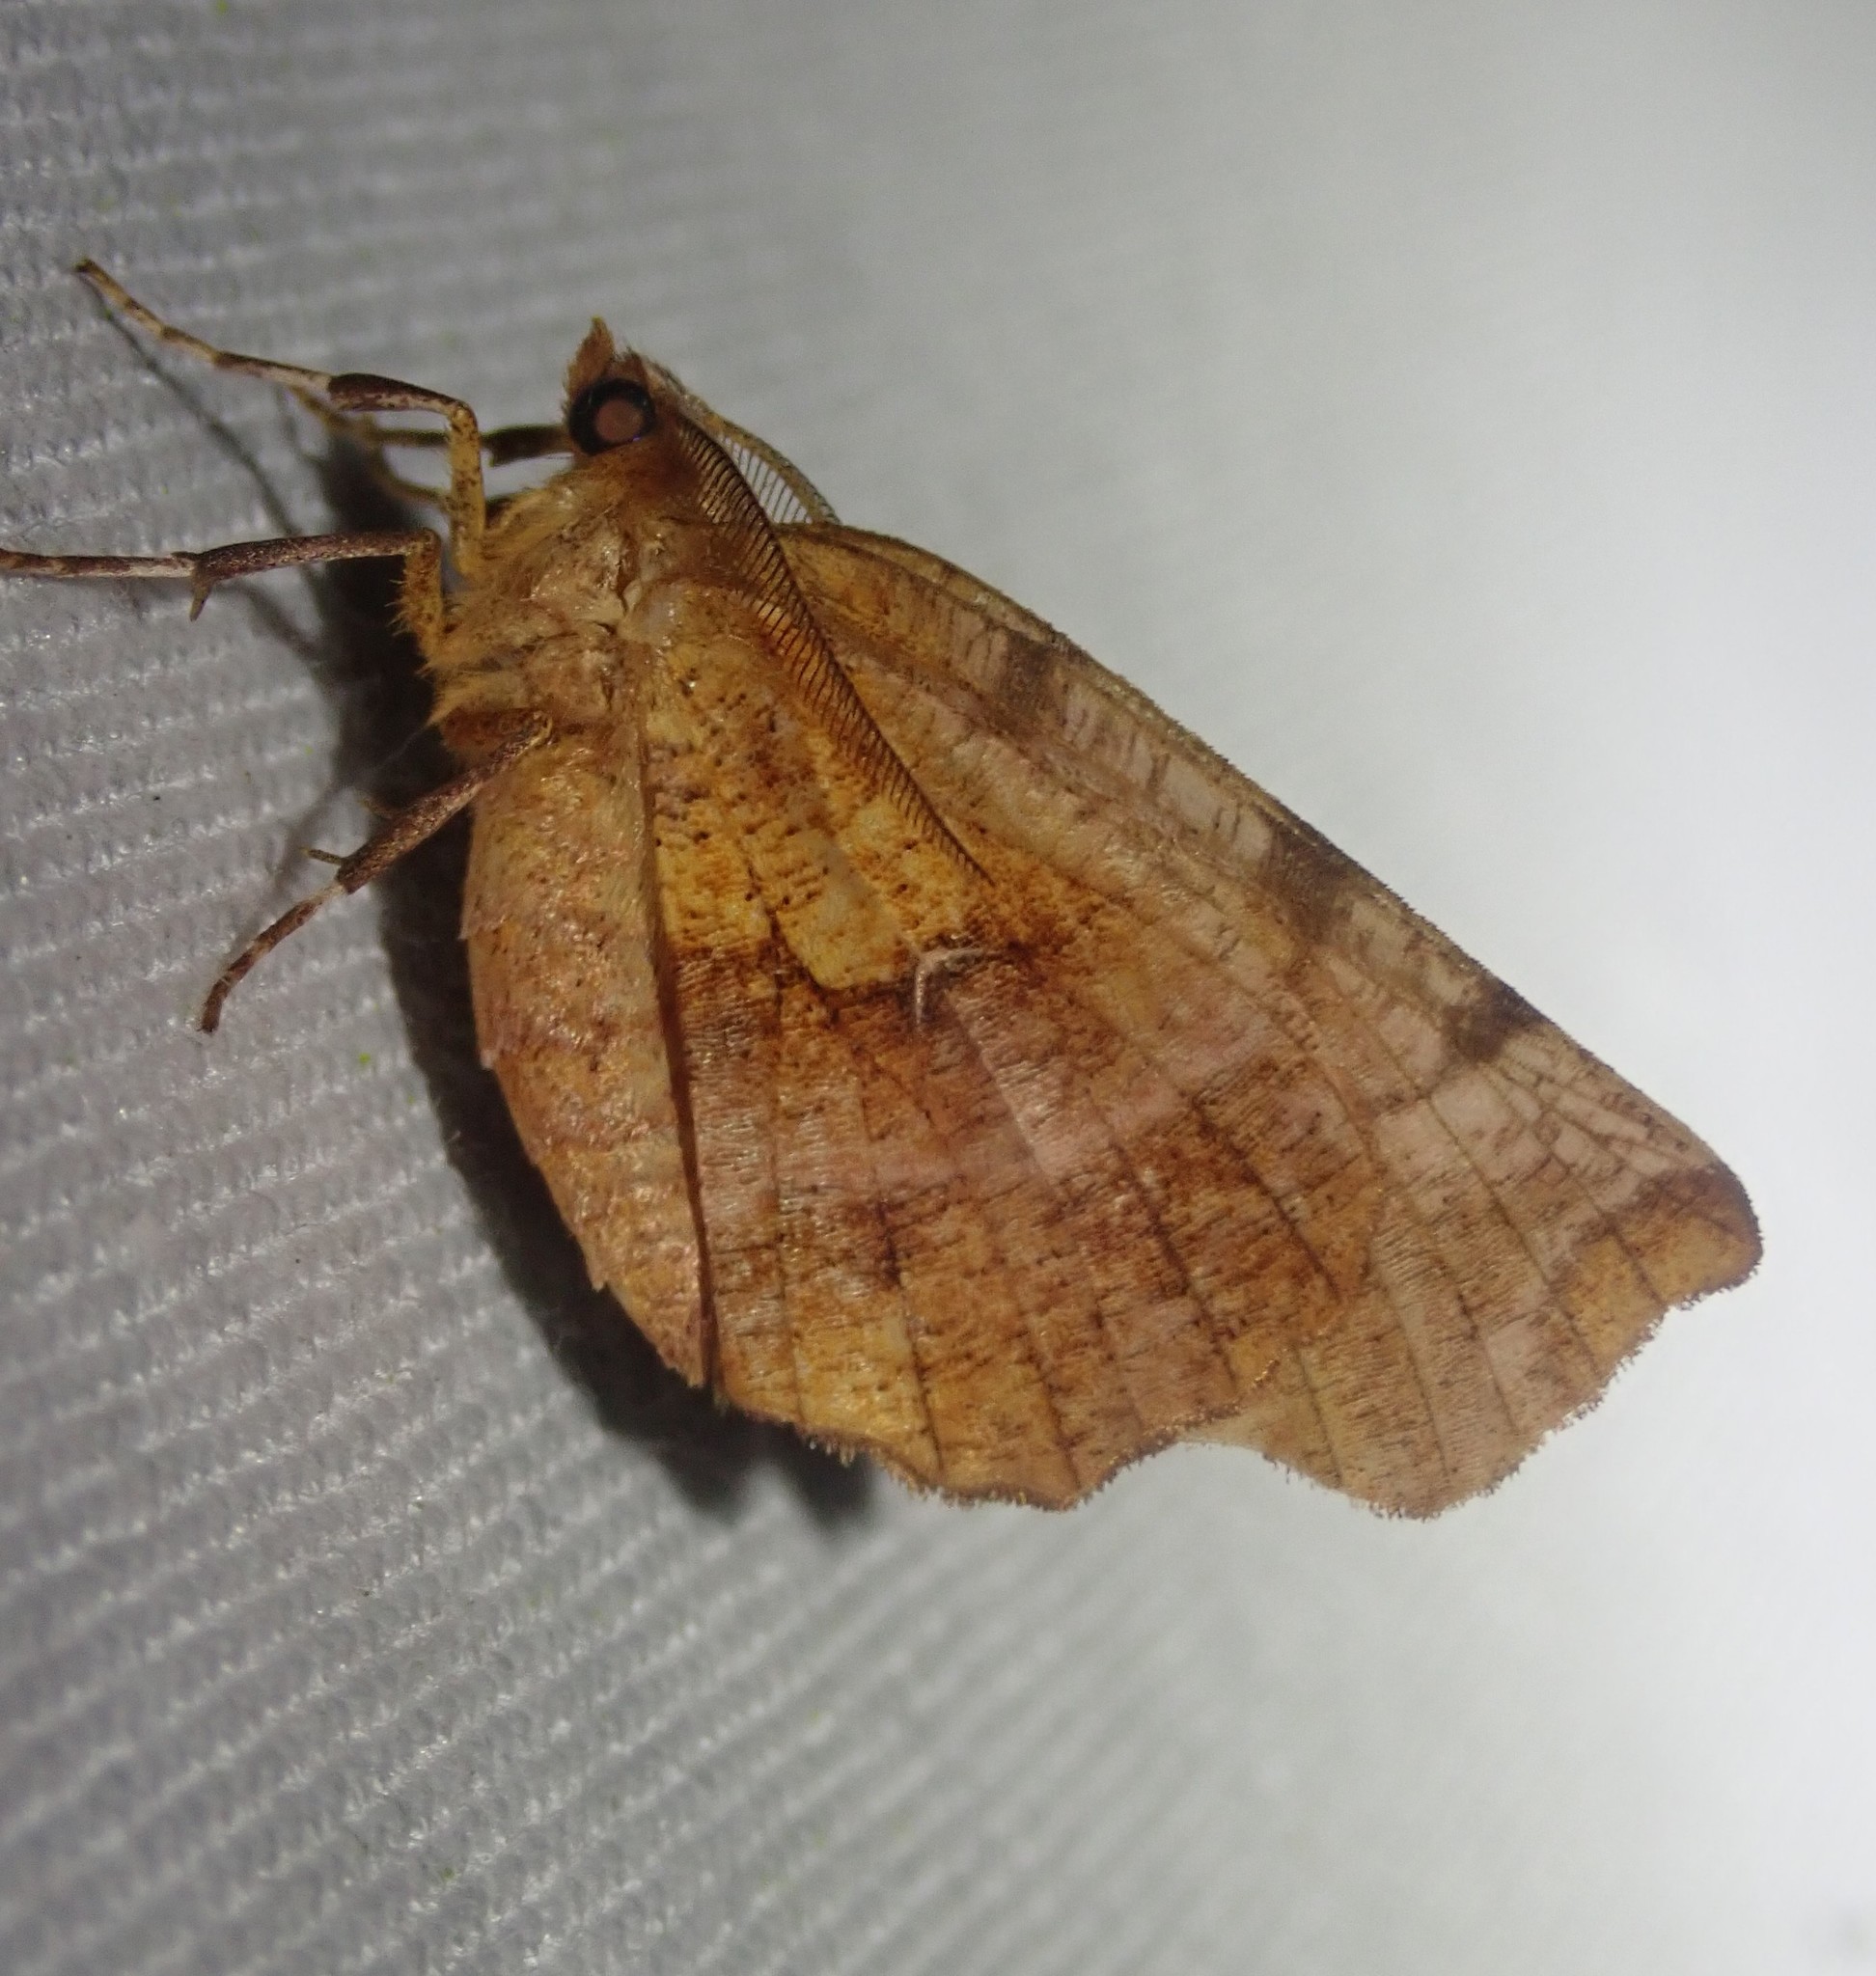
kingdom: Animalia
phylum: Arthropoda
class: Insecta
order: Lepidoptera
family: Geometridae
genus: Selenia
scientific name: Selenia dentaria
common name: Early thorn
